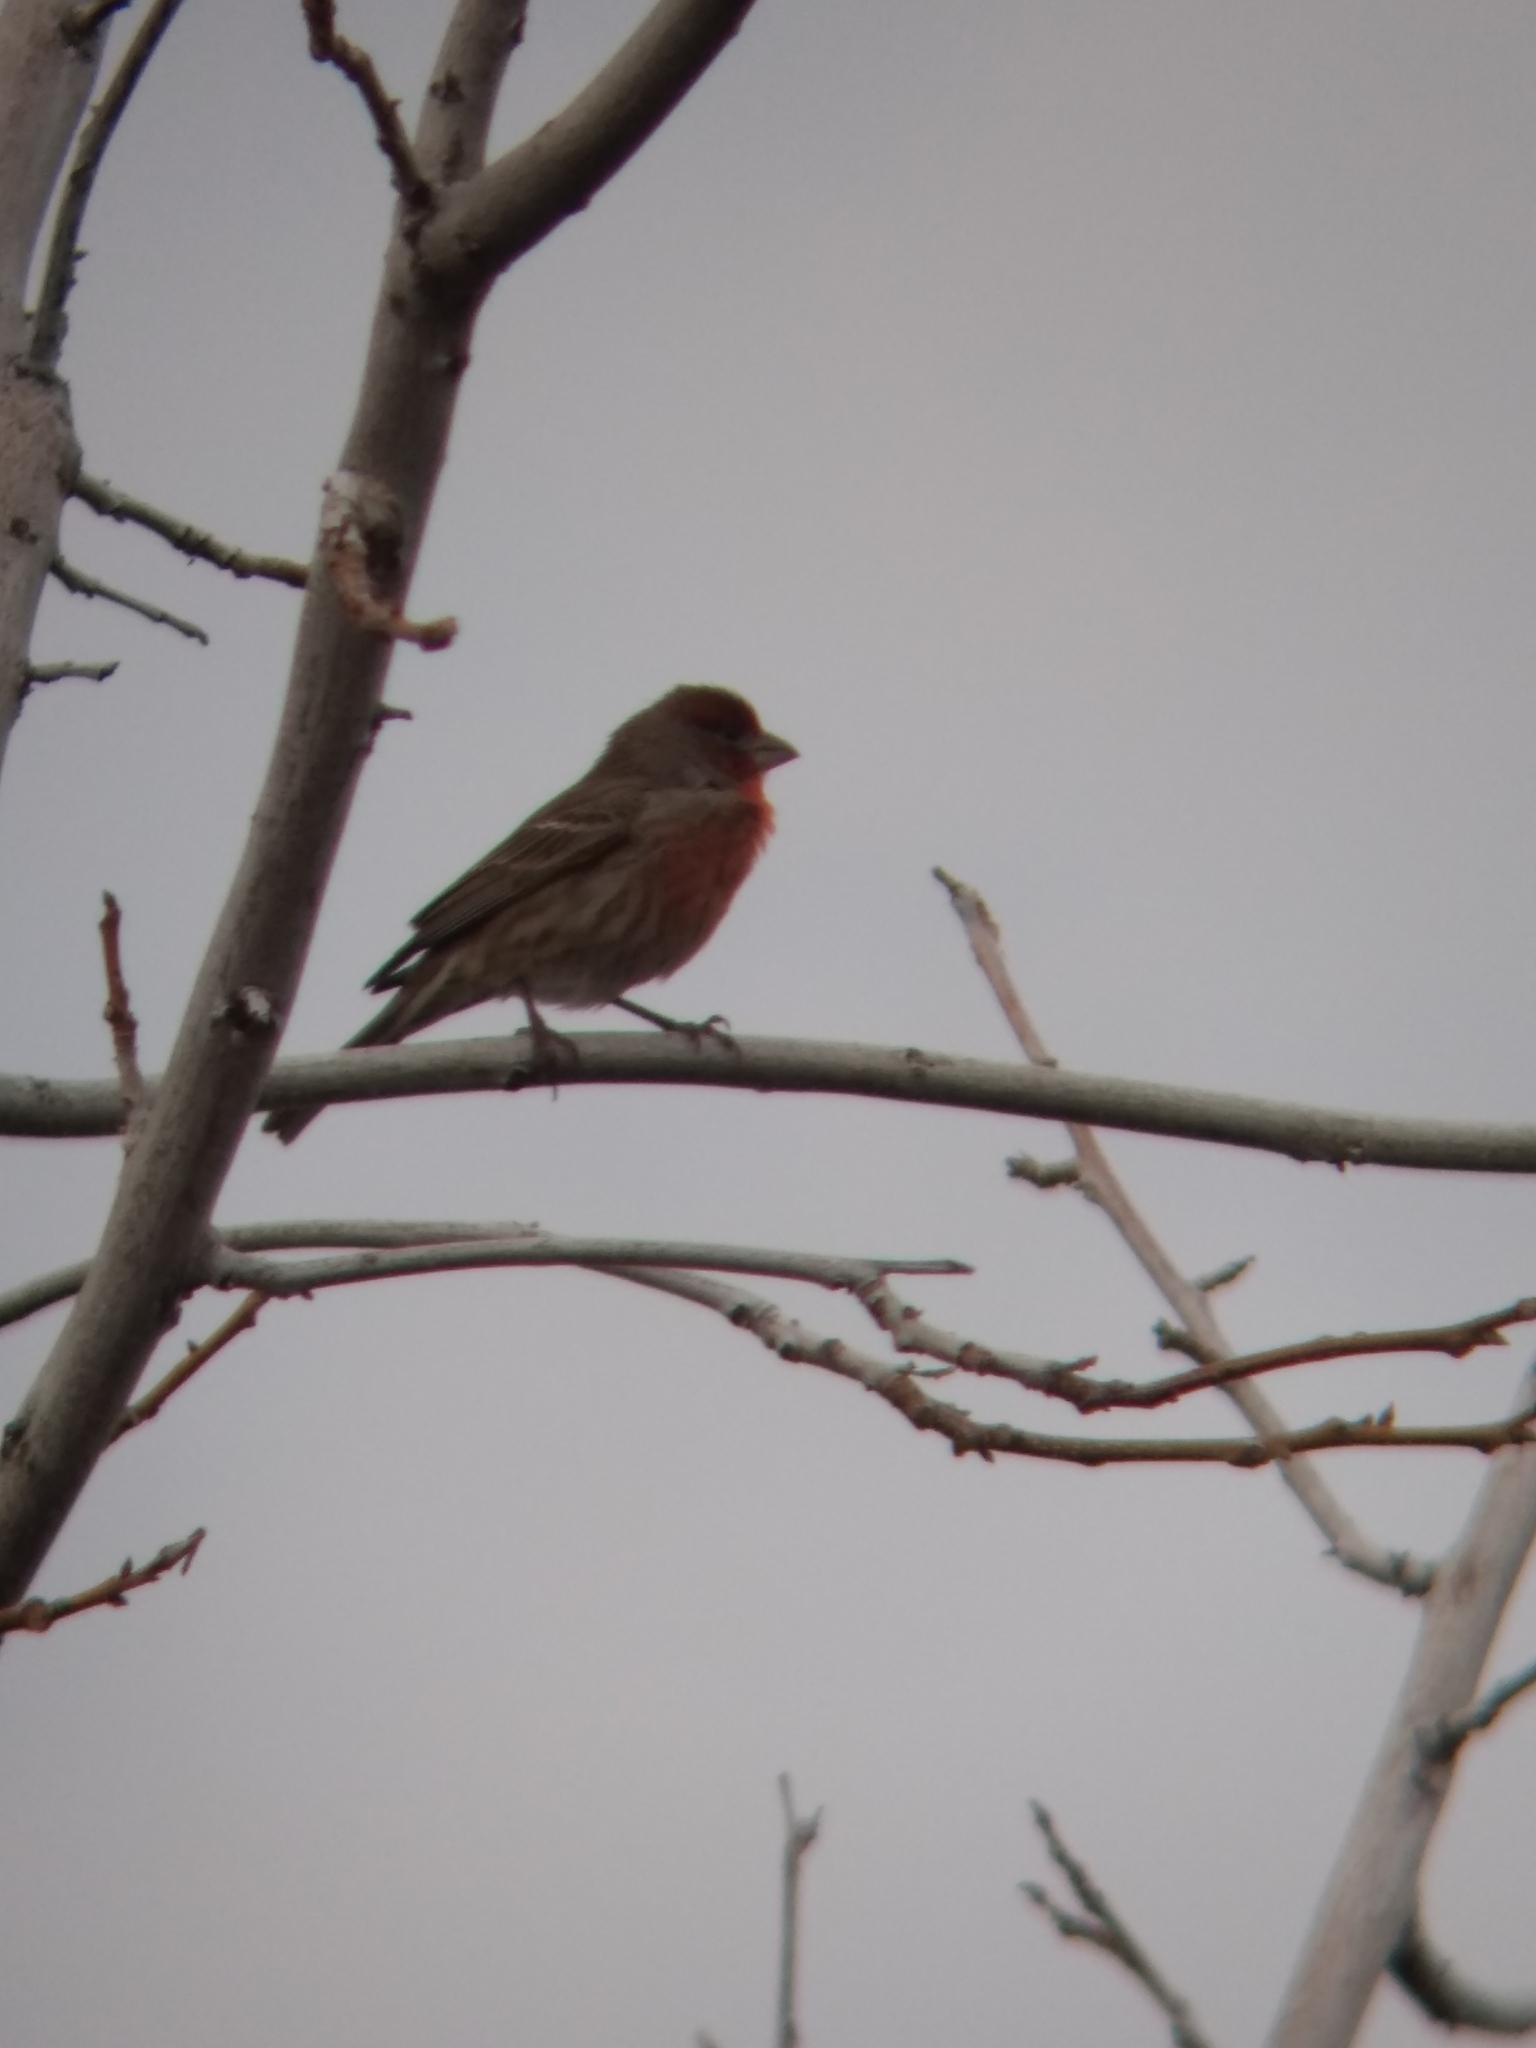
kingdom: Animalia
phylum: Chordata
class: Aves
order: Passeriformes
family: Fringillidae
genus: Haemorhous
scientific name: Haemorhous mexicanus
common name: House finch
